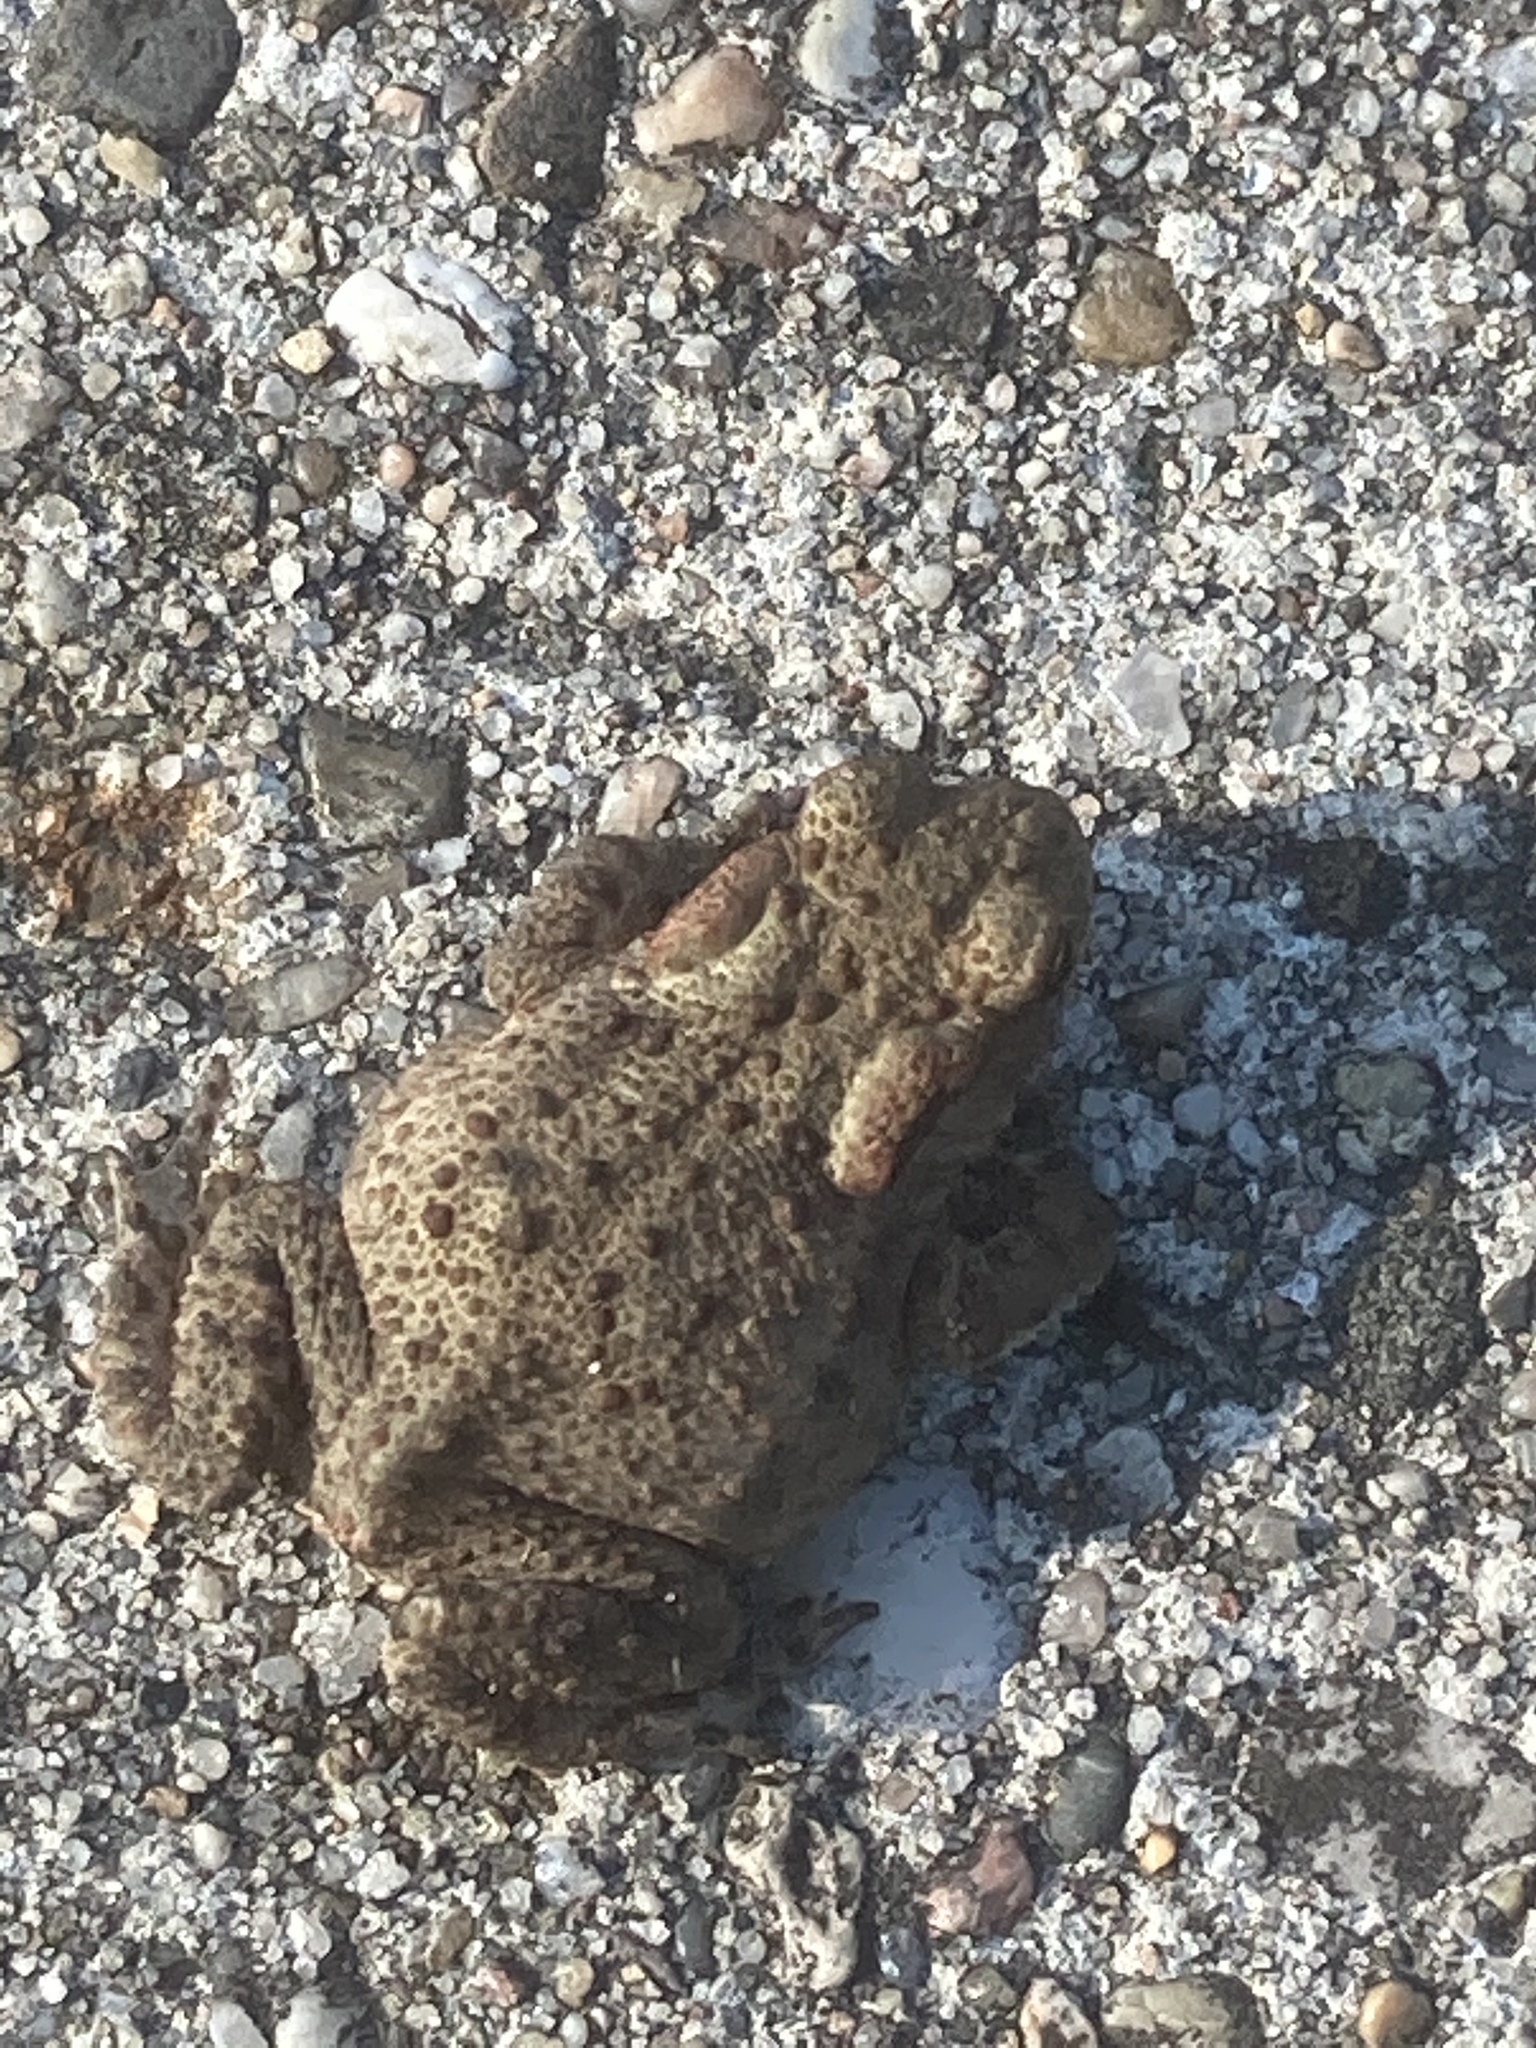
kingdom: Animalia
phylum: Chordata
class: Amphibia
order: Anura
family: Bufonidae
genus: Bufo
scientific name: Bufo bufo
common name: Common toad
